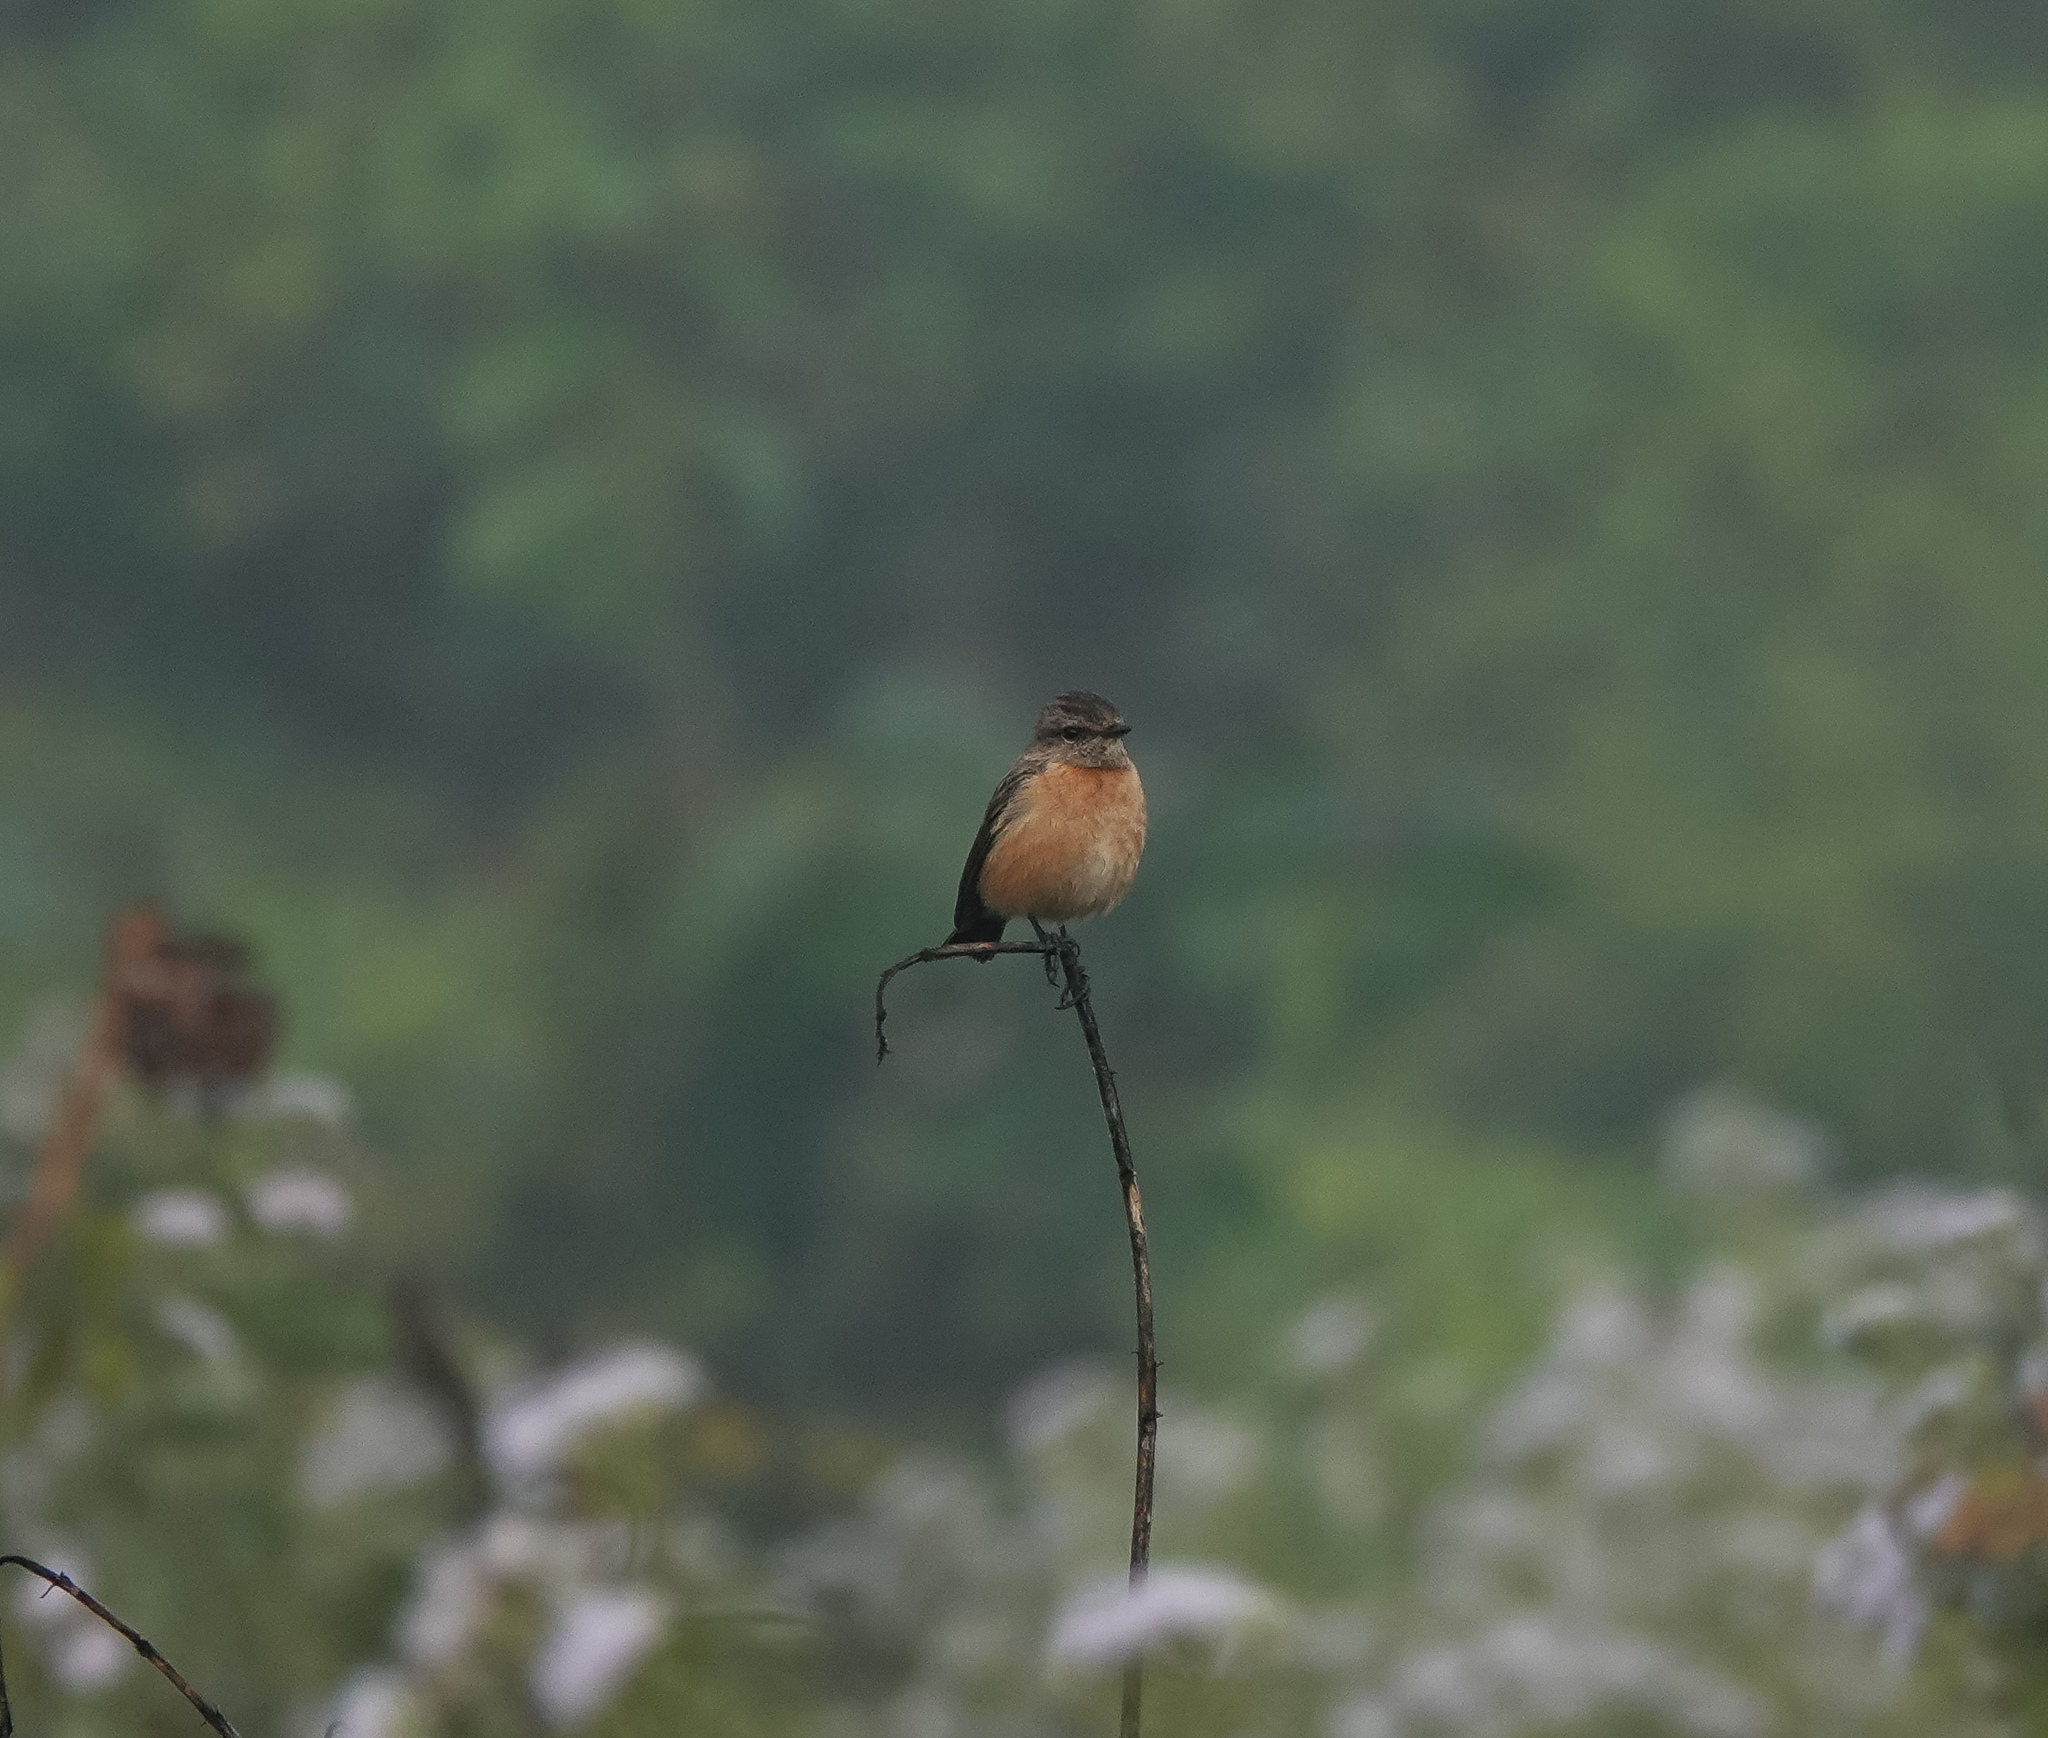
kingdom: Animalia
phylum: Chordata
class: Aves
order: Passeriformes
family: Muscicapidae
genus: Saxicola
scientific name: Saxicola maurus
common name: Siberian stonechat
